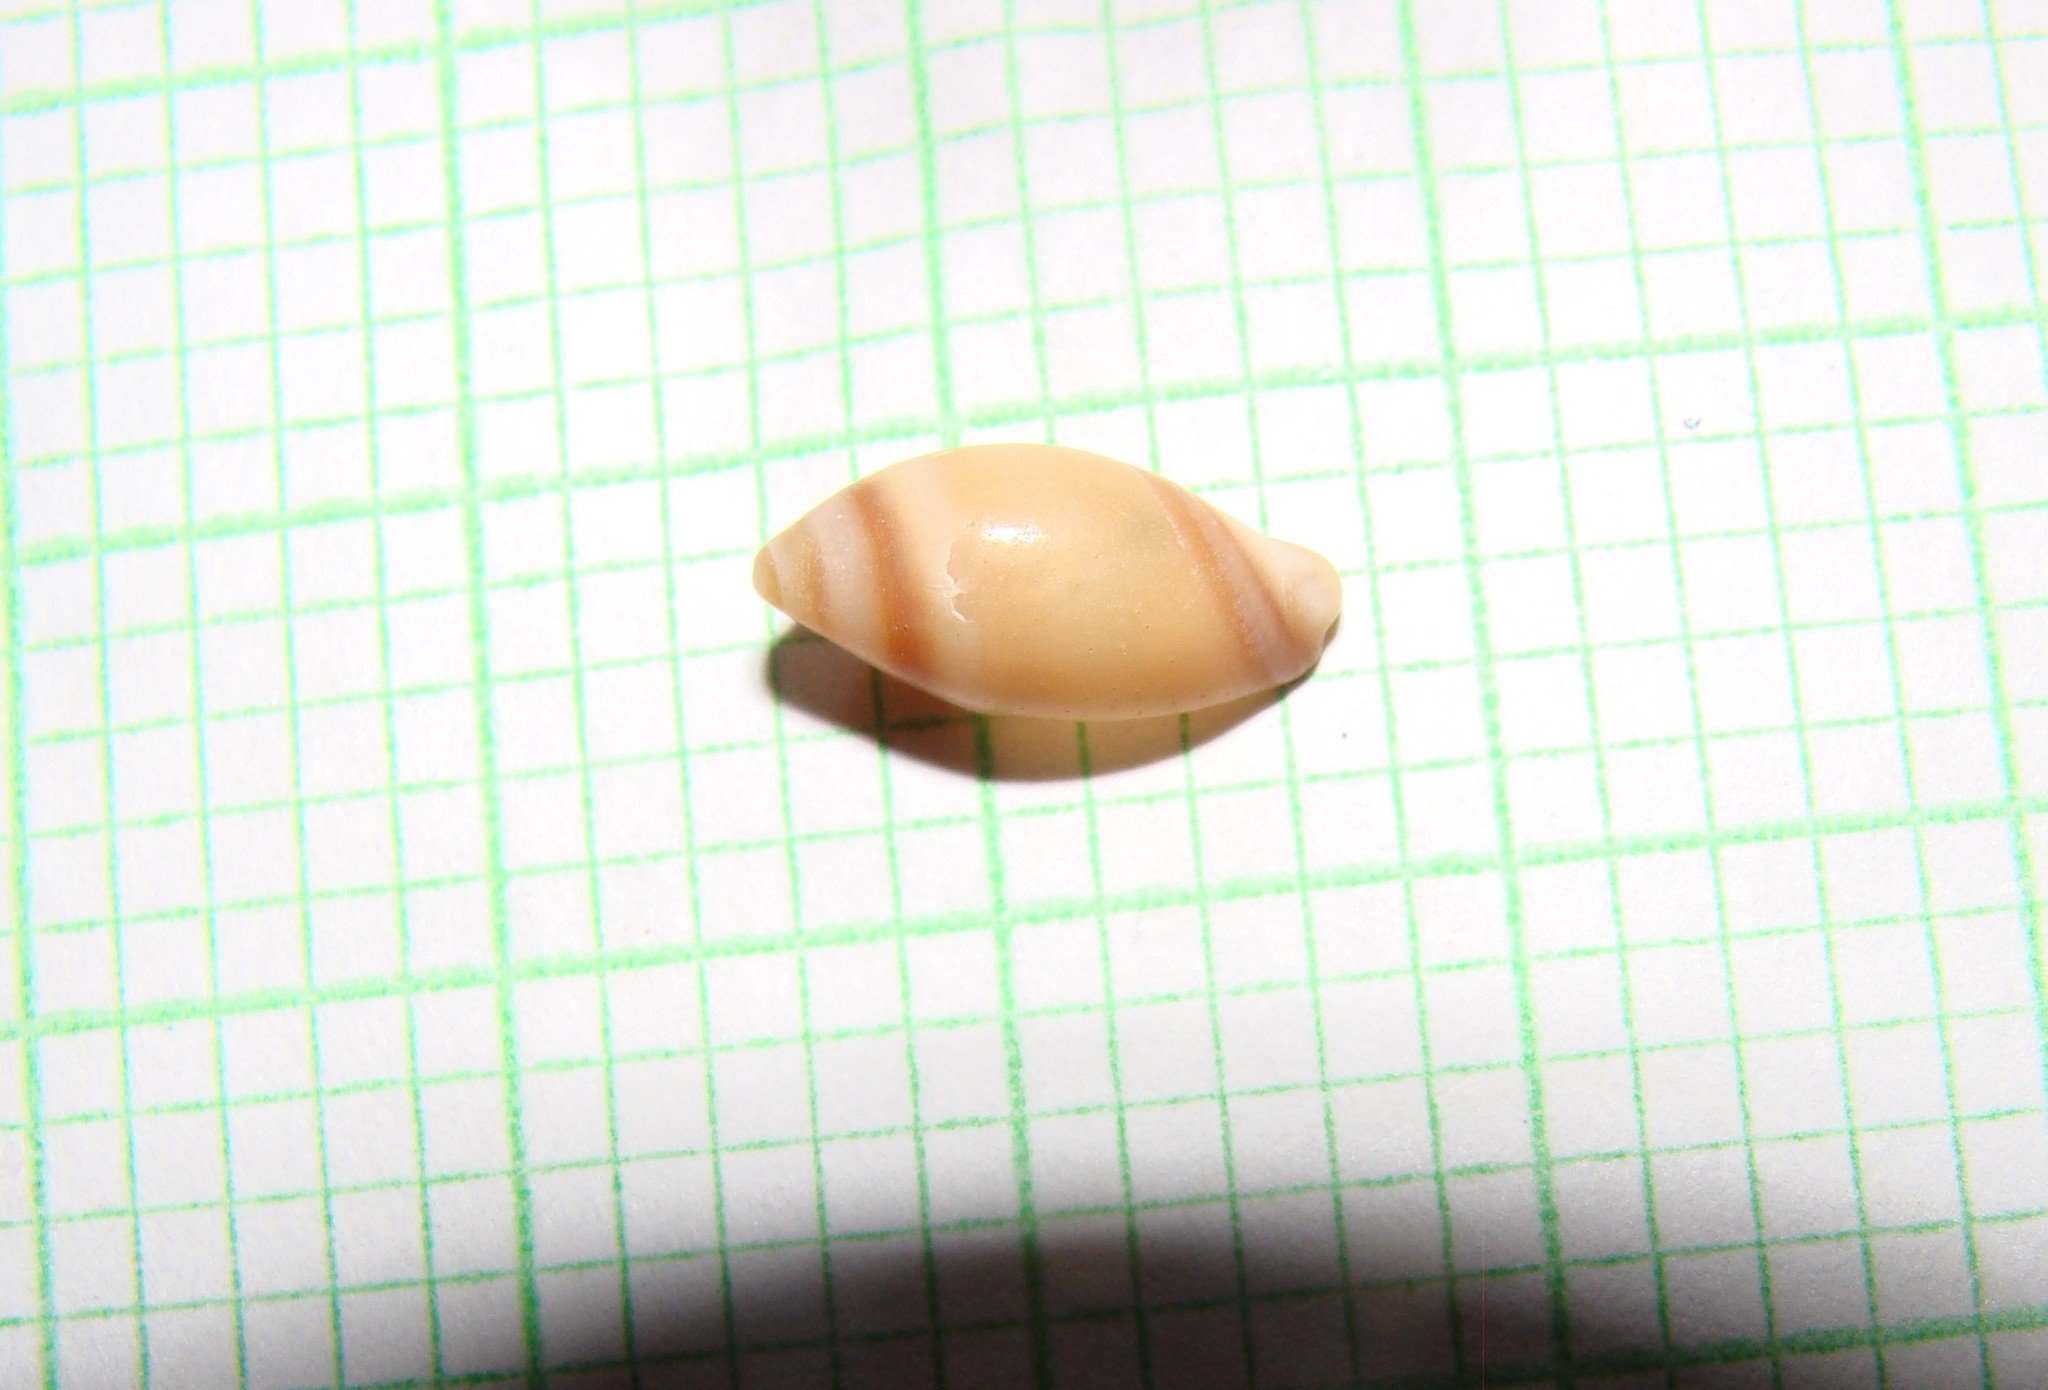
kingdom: Animalia
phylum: Mollusca
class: Gastropoda
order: Neogastropoda
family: Ancillariidae
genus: Amalda
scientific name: Amalda australis
